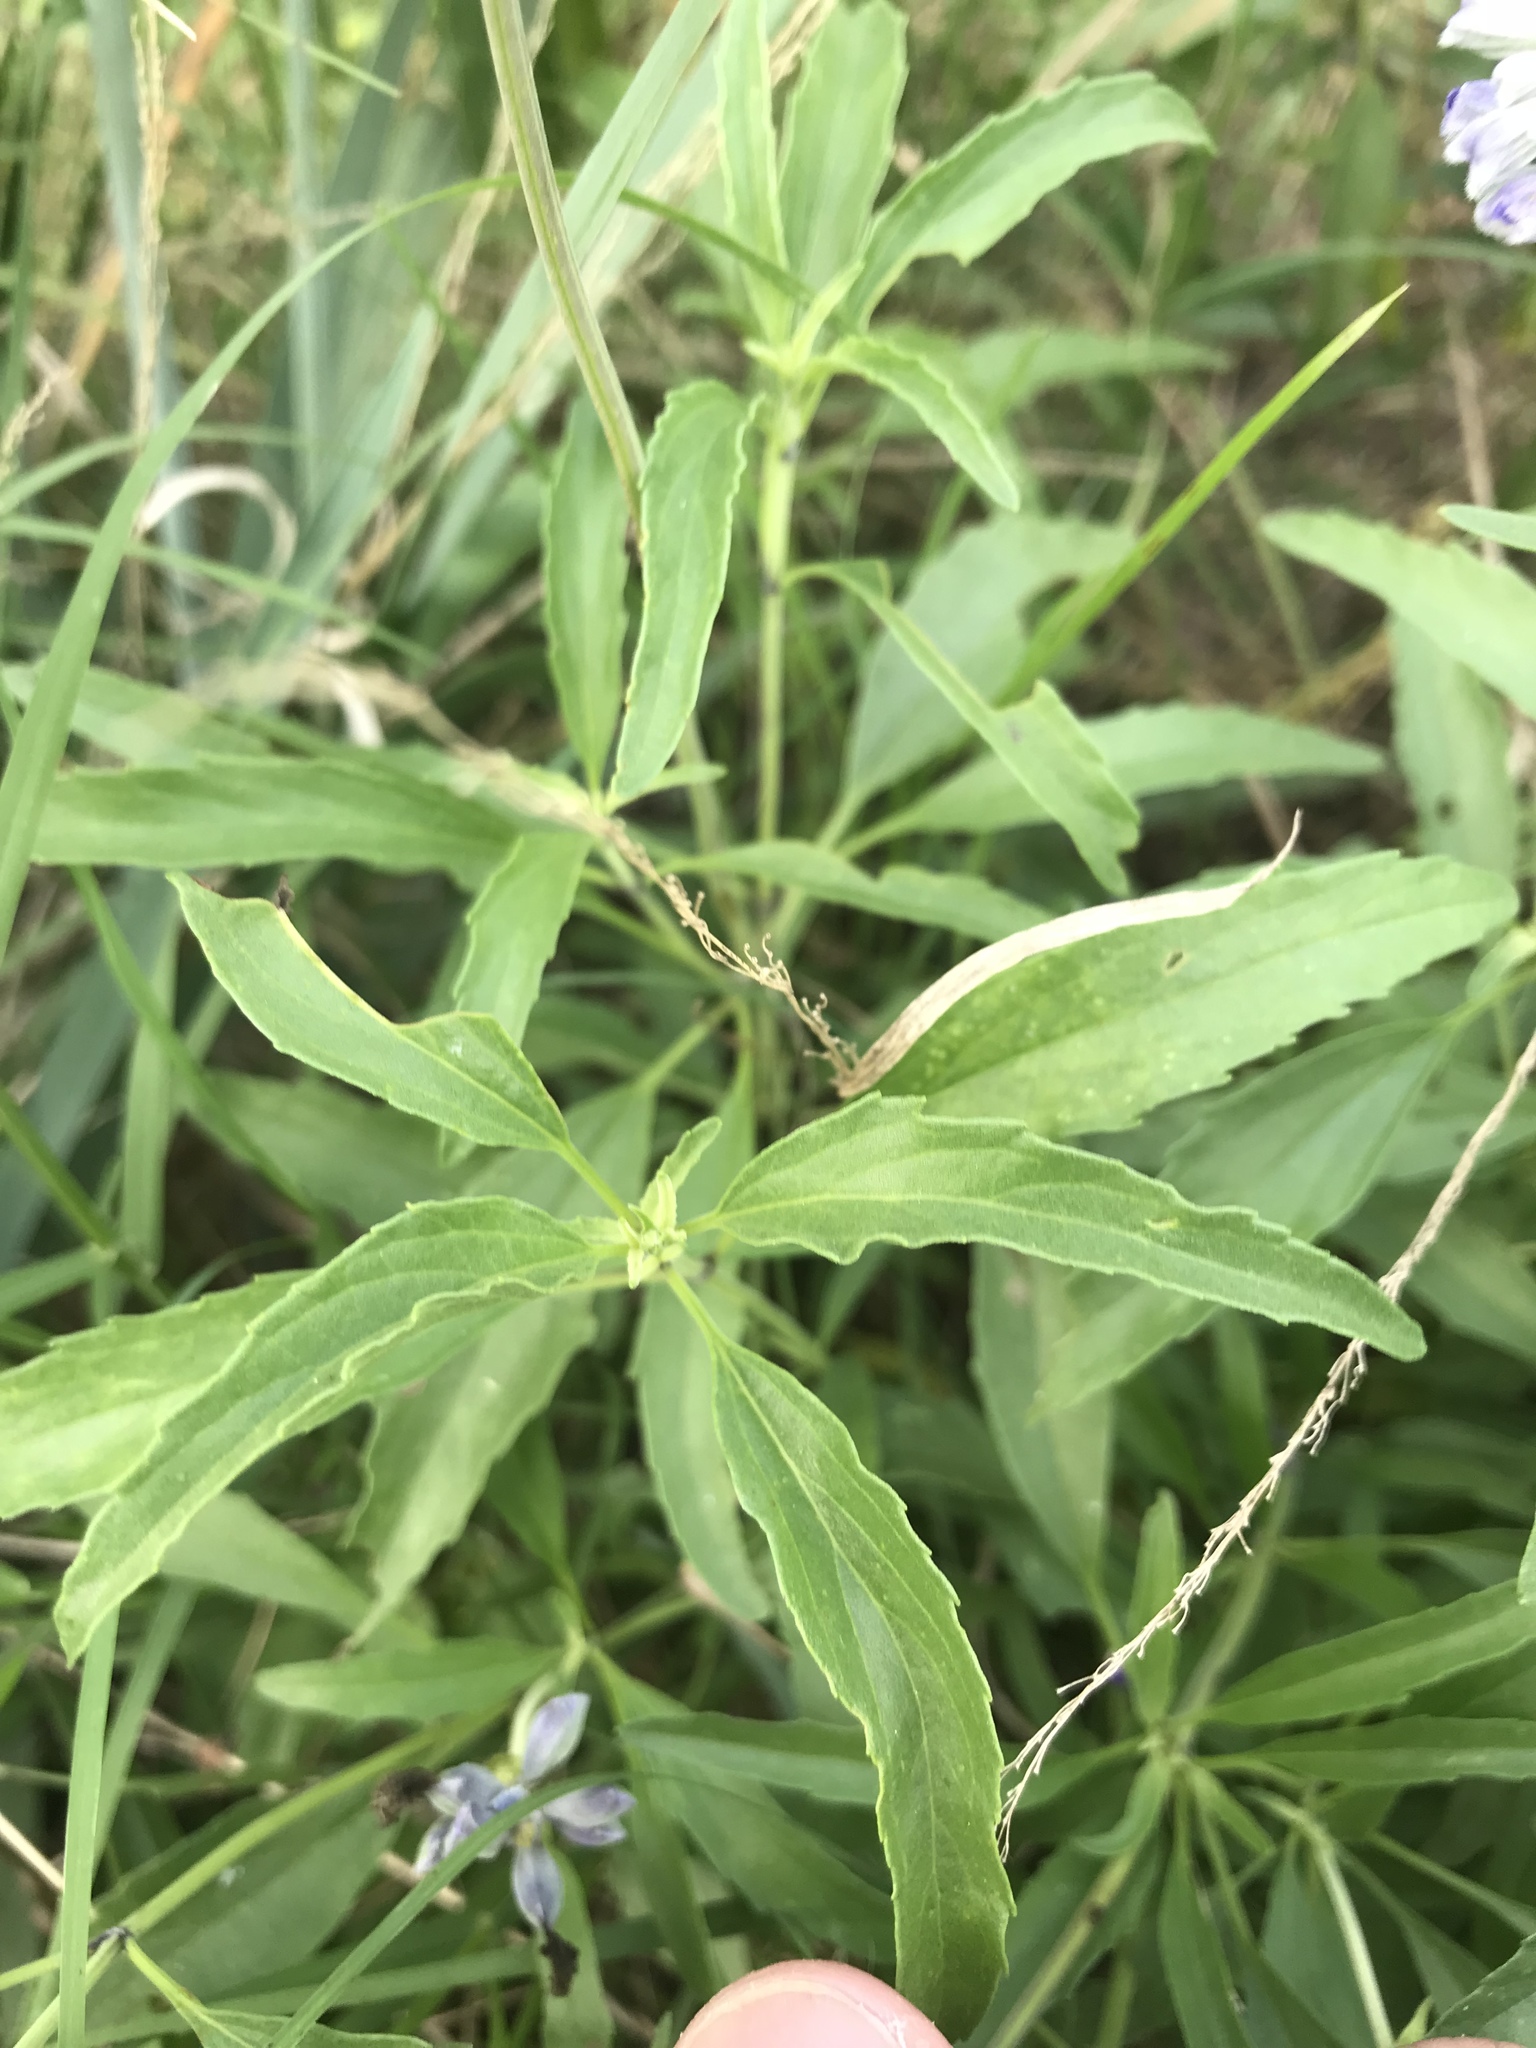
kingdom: Plantae
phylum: Tracheophyta
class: Magnoliopsida
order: Lamiales
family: Lamiaceae
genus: Salvia
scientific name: Salvia farinacea
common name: Mealy sage
